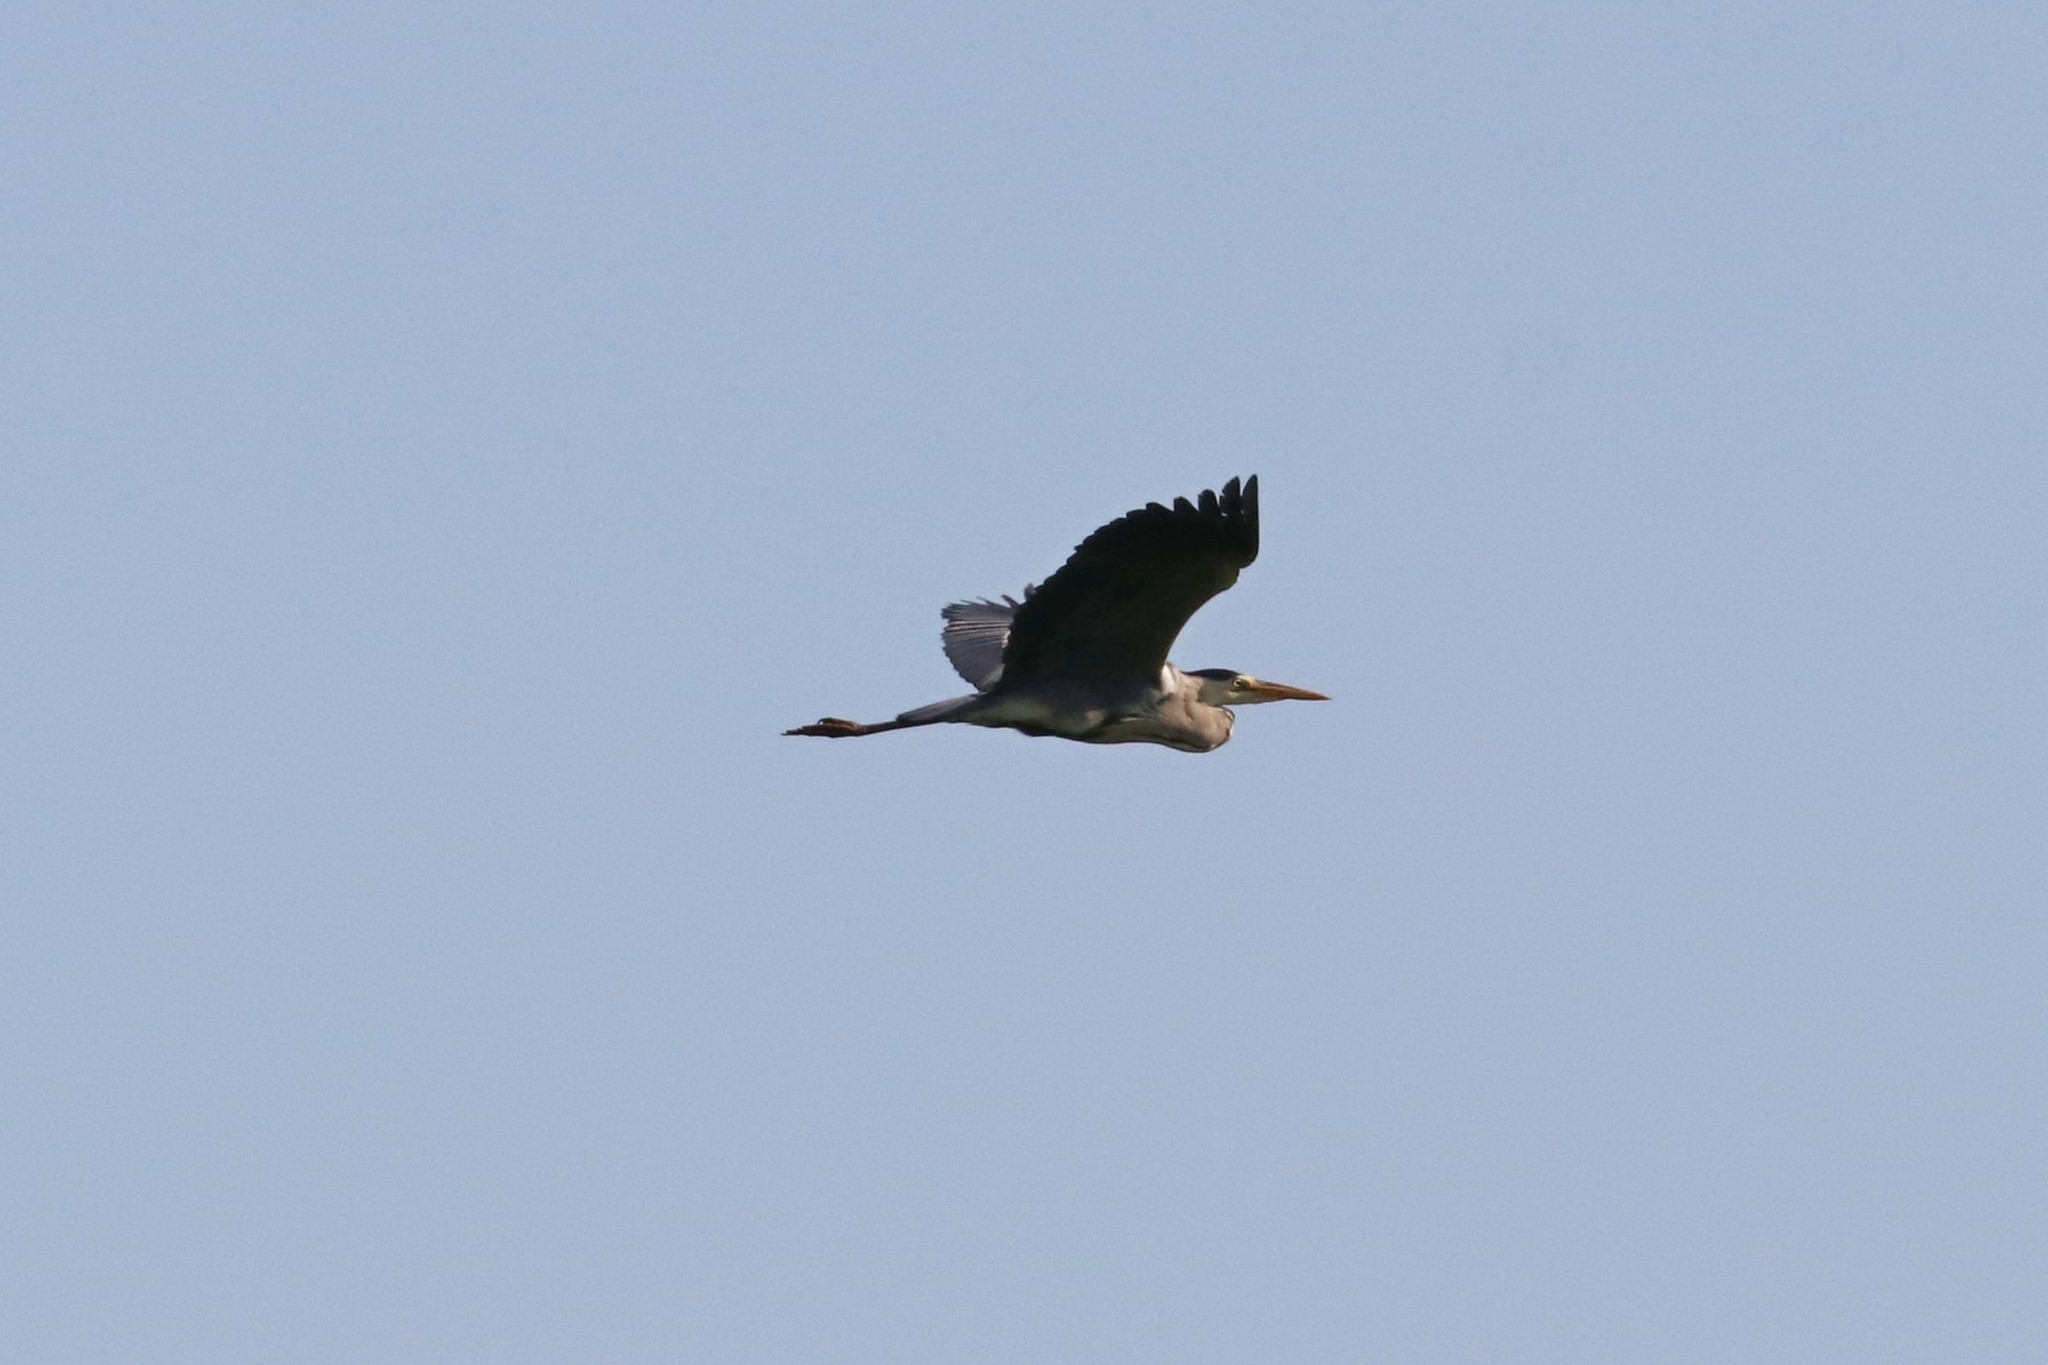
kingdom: Animalia
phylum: Chordata
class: Aves
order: Pelecaniformes
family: Ardeidae
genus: Ardea
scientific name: Ardea cinerea
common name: Grey heron
